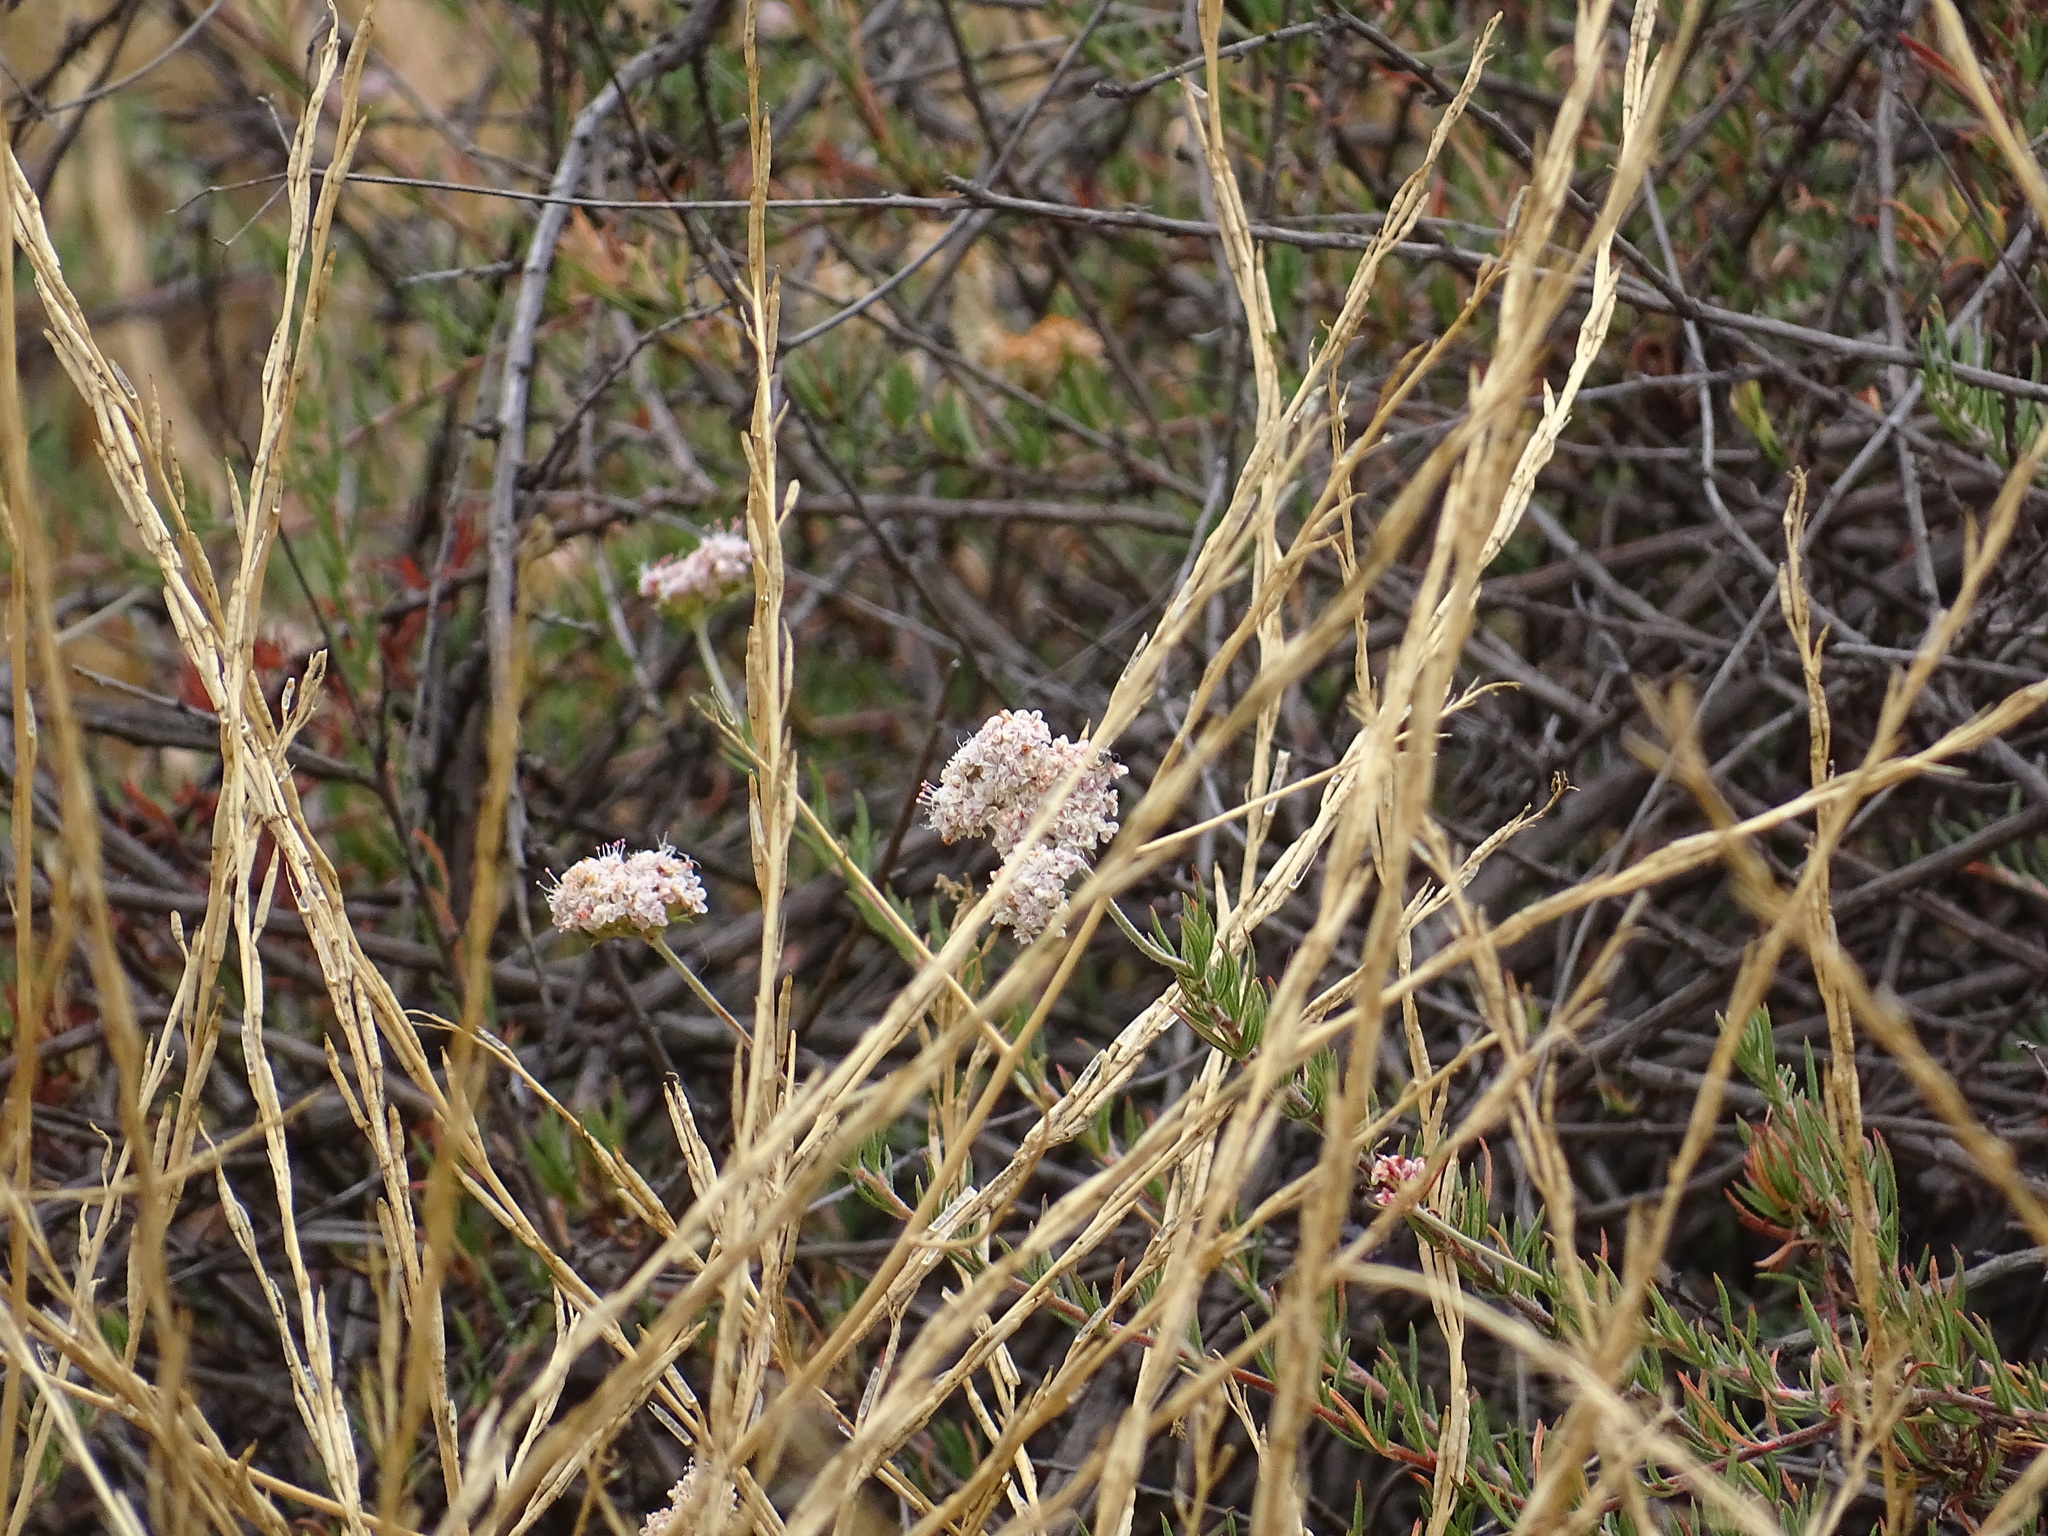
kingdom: Plantae
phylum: Tracheophyta
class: Magnoliopsida
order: Caryophyllales
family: Polygonaceae
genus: Eriogonum
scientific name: Eriogonum fasciculatum
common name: California wild buckwheat
